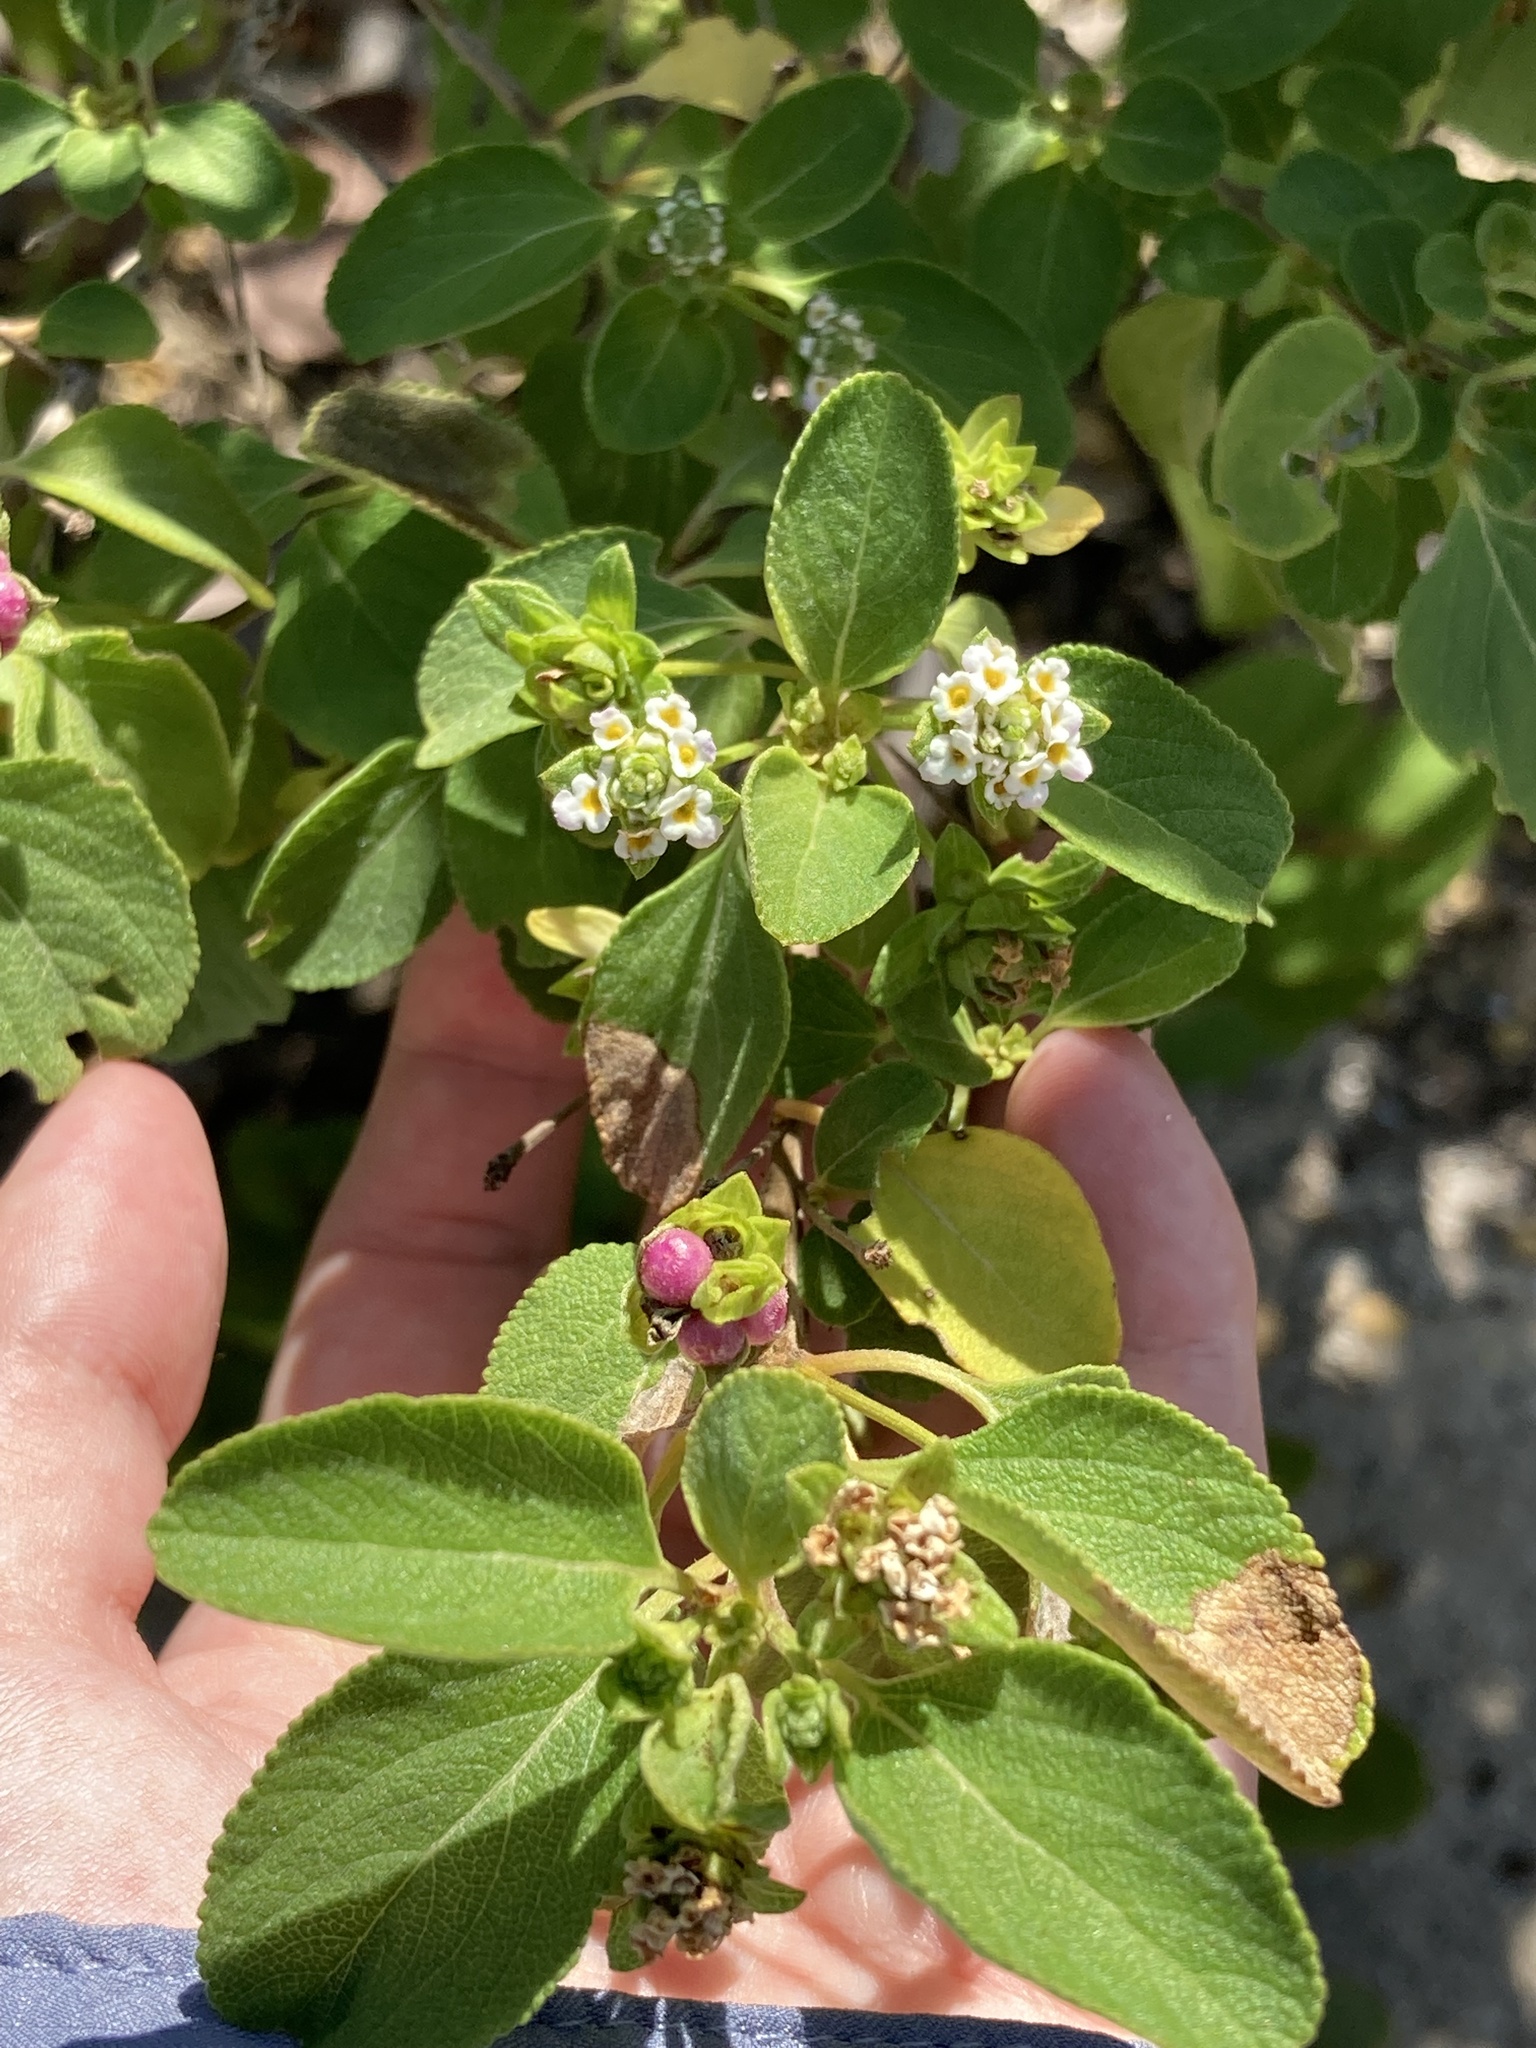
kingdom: Plantae
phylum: Tracheophyta
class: Magnoliopsida
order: Lamiales
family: Verbenaceae
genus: Lantana
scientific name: Lantana involucrata
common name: Black sage
